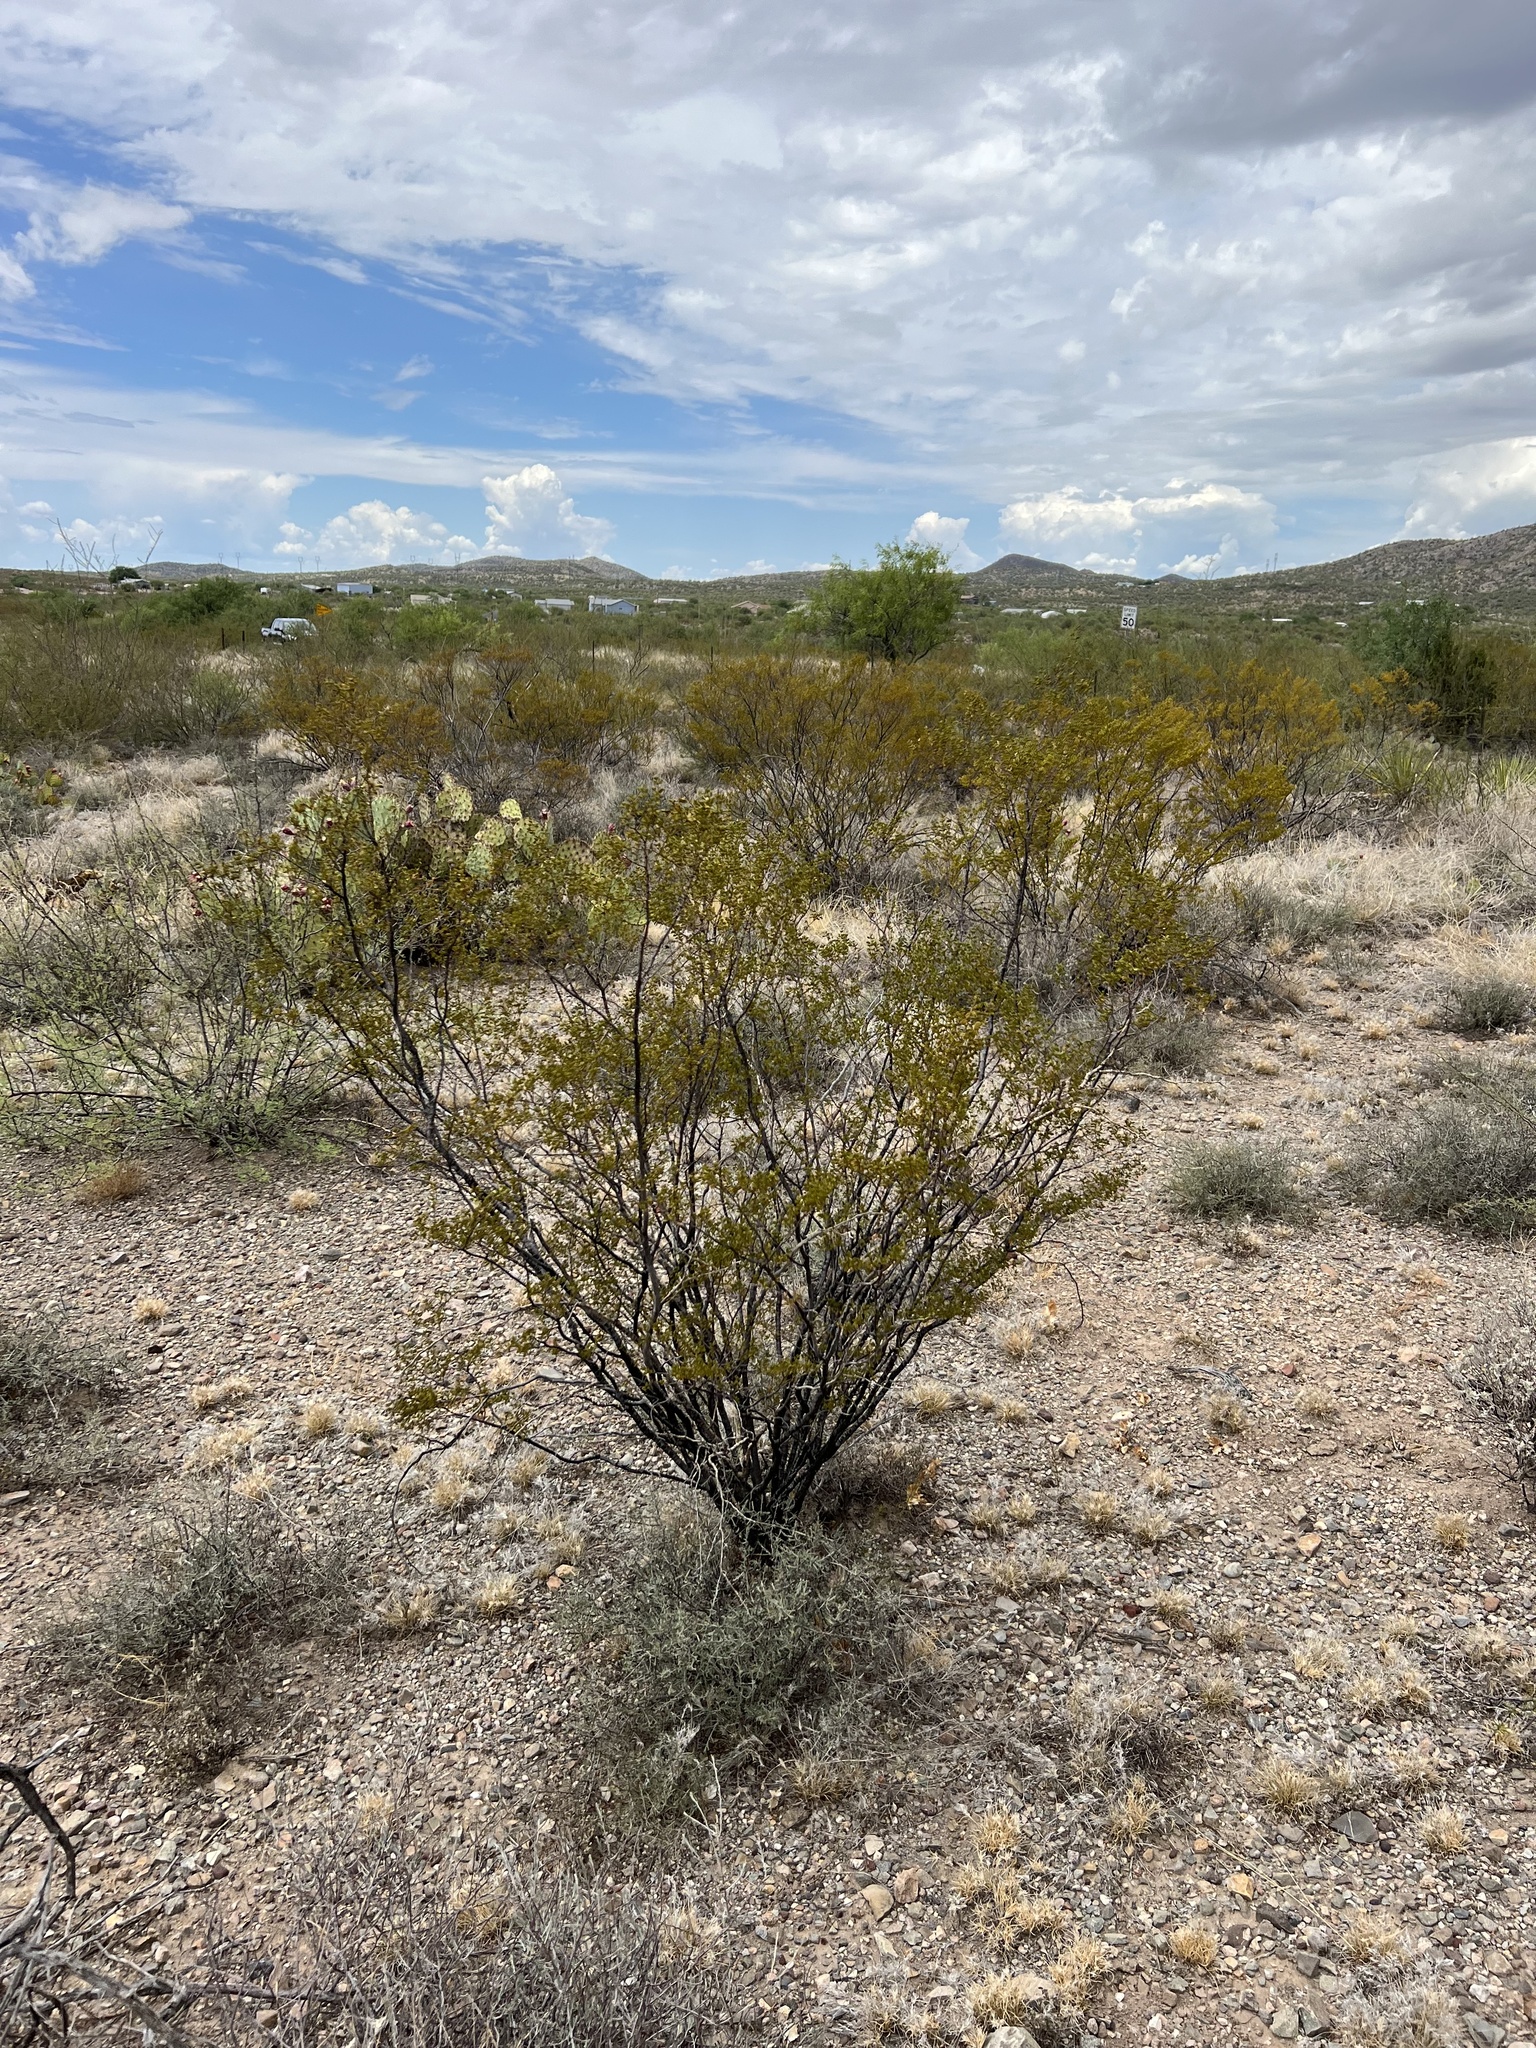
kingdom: Plantae
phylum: Tracheophyta
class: Magnoliopsida
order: Zygophyllales
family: Zygophyllaceae
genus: Larrea
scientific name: Larrea tridentata
